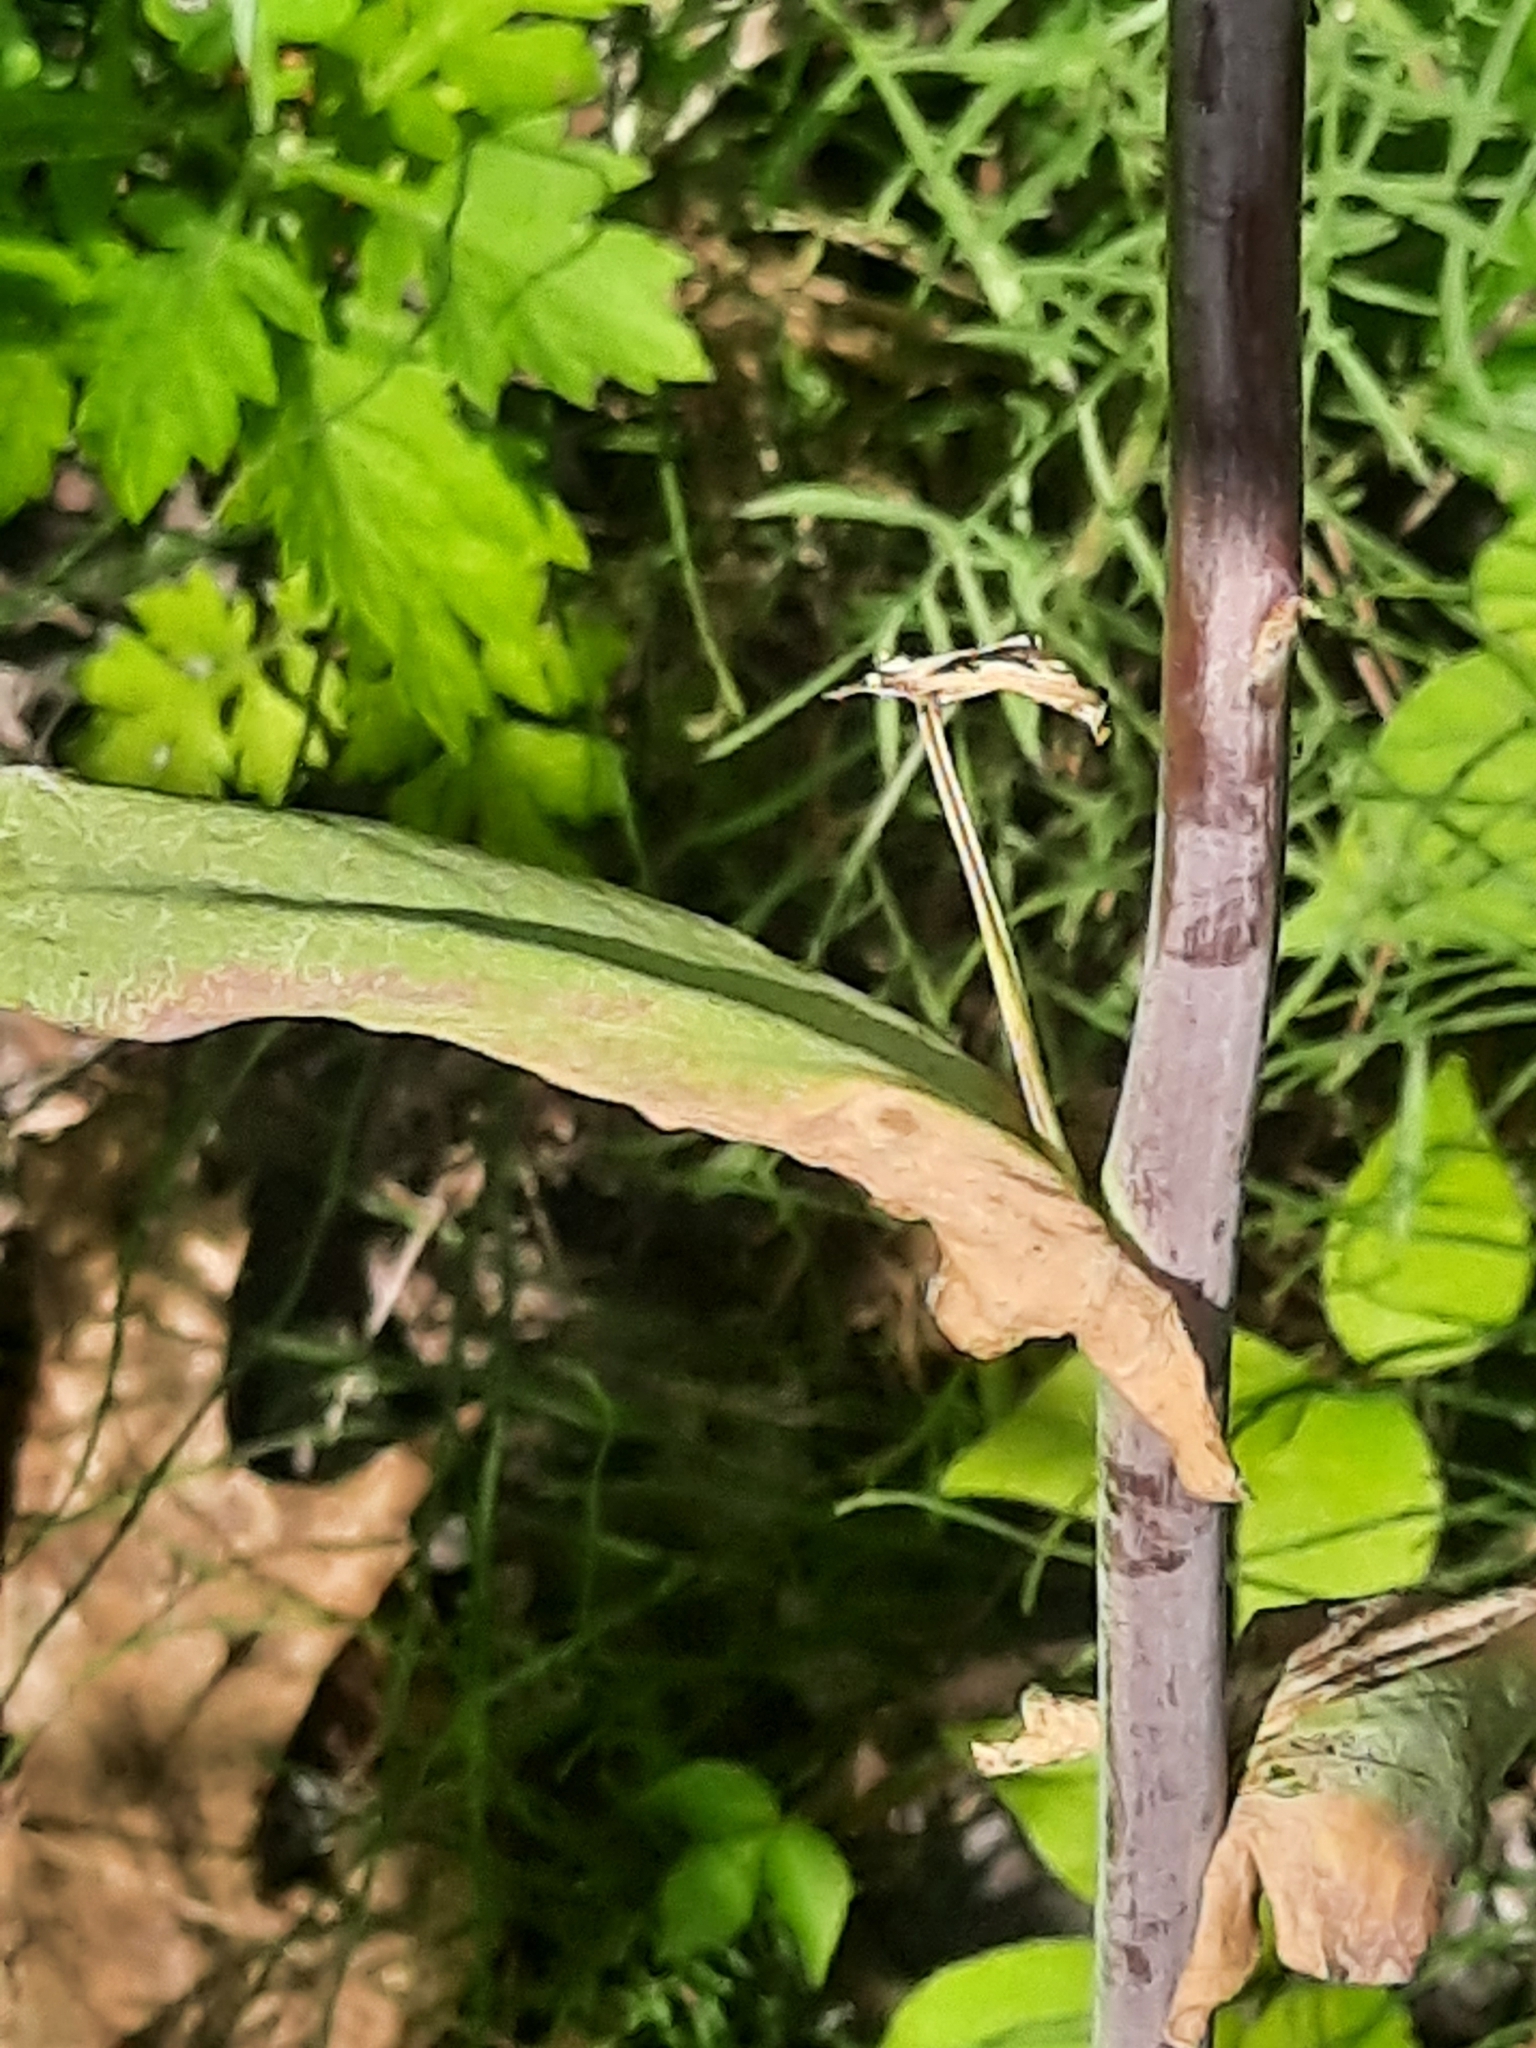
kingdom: Plantae
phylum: Tracheophyta
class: Magnoliopsida
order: Brassicales
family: Brassicaceae
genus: Turritis
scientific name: Turritis glabra
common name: Tower rockcress
